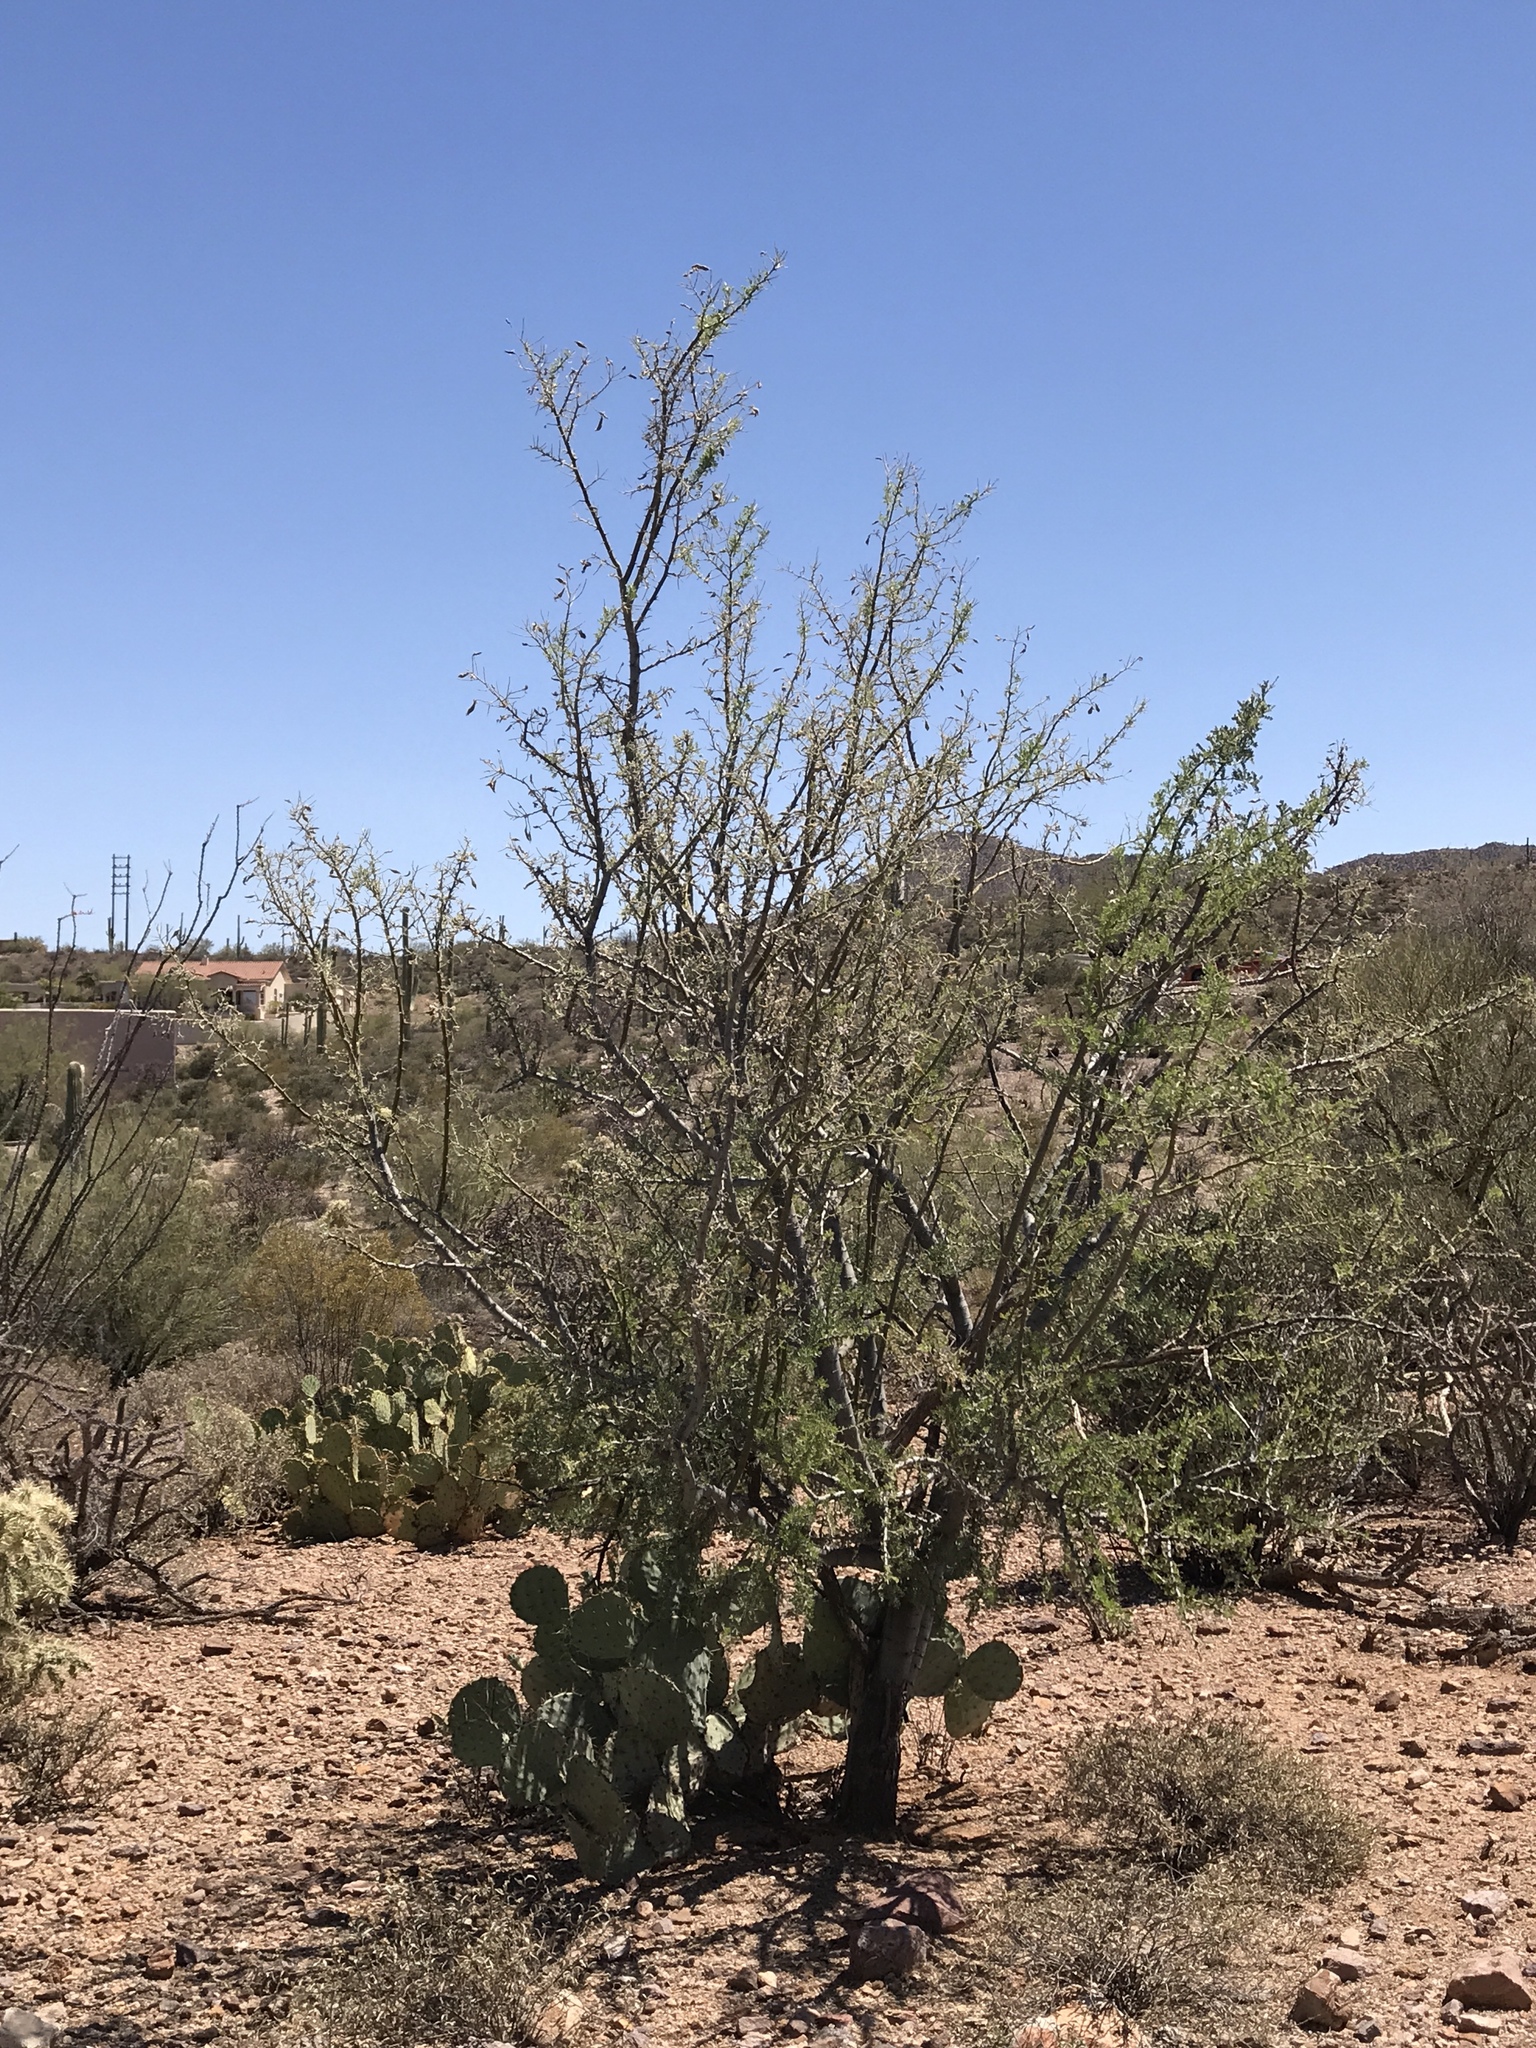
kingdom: Plantae
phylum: Tracheophyta
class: Magnoliopsida
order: Fabales
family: Fabaceae
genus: Olneya
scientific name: Olneya tesota
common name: Desert ironwood
